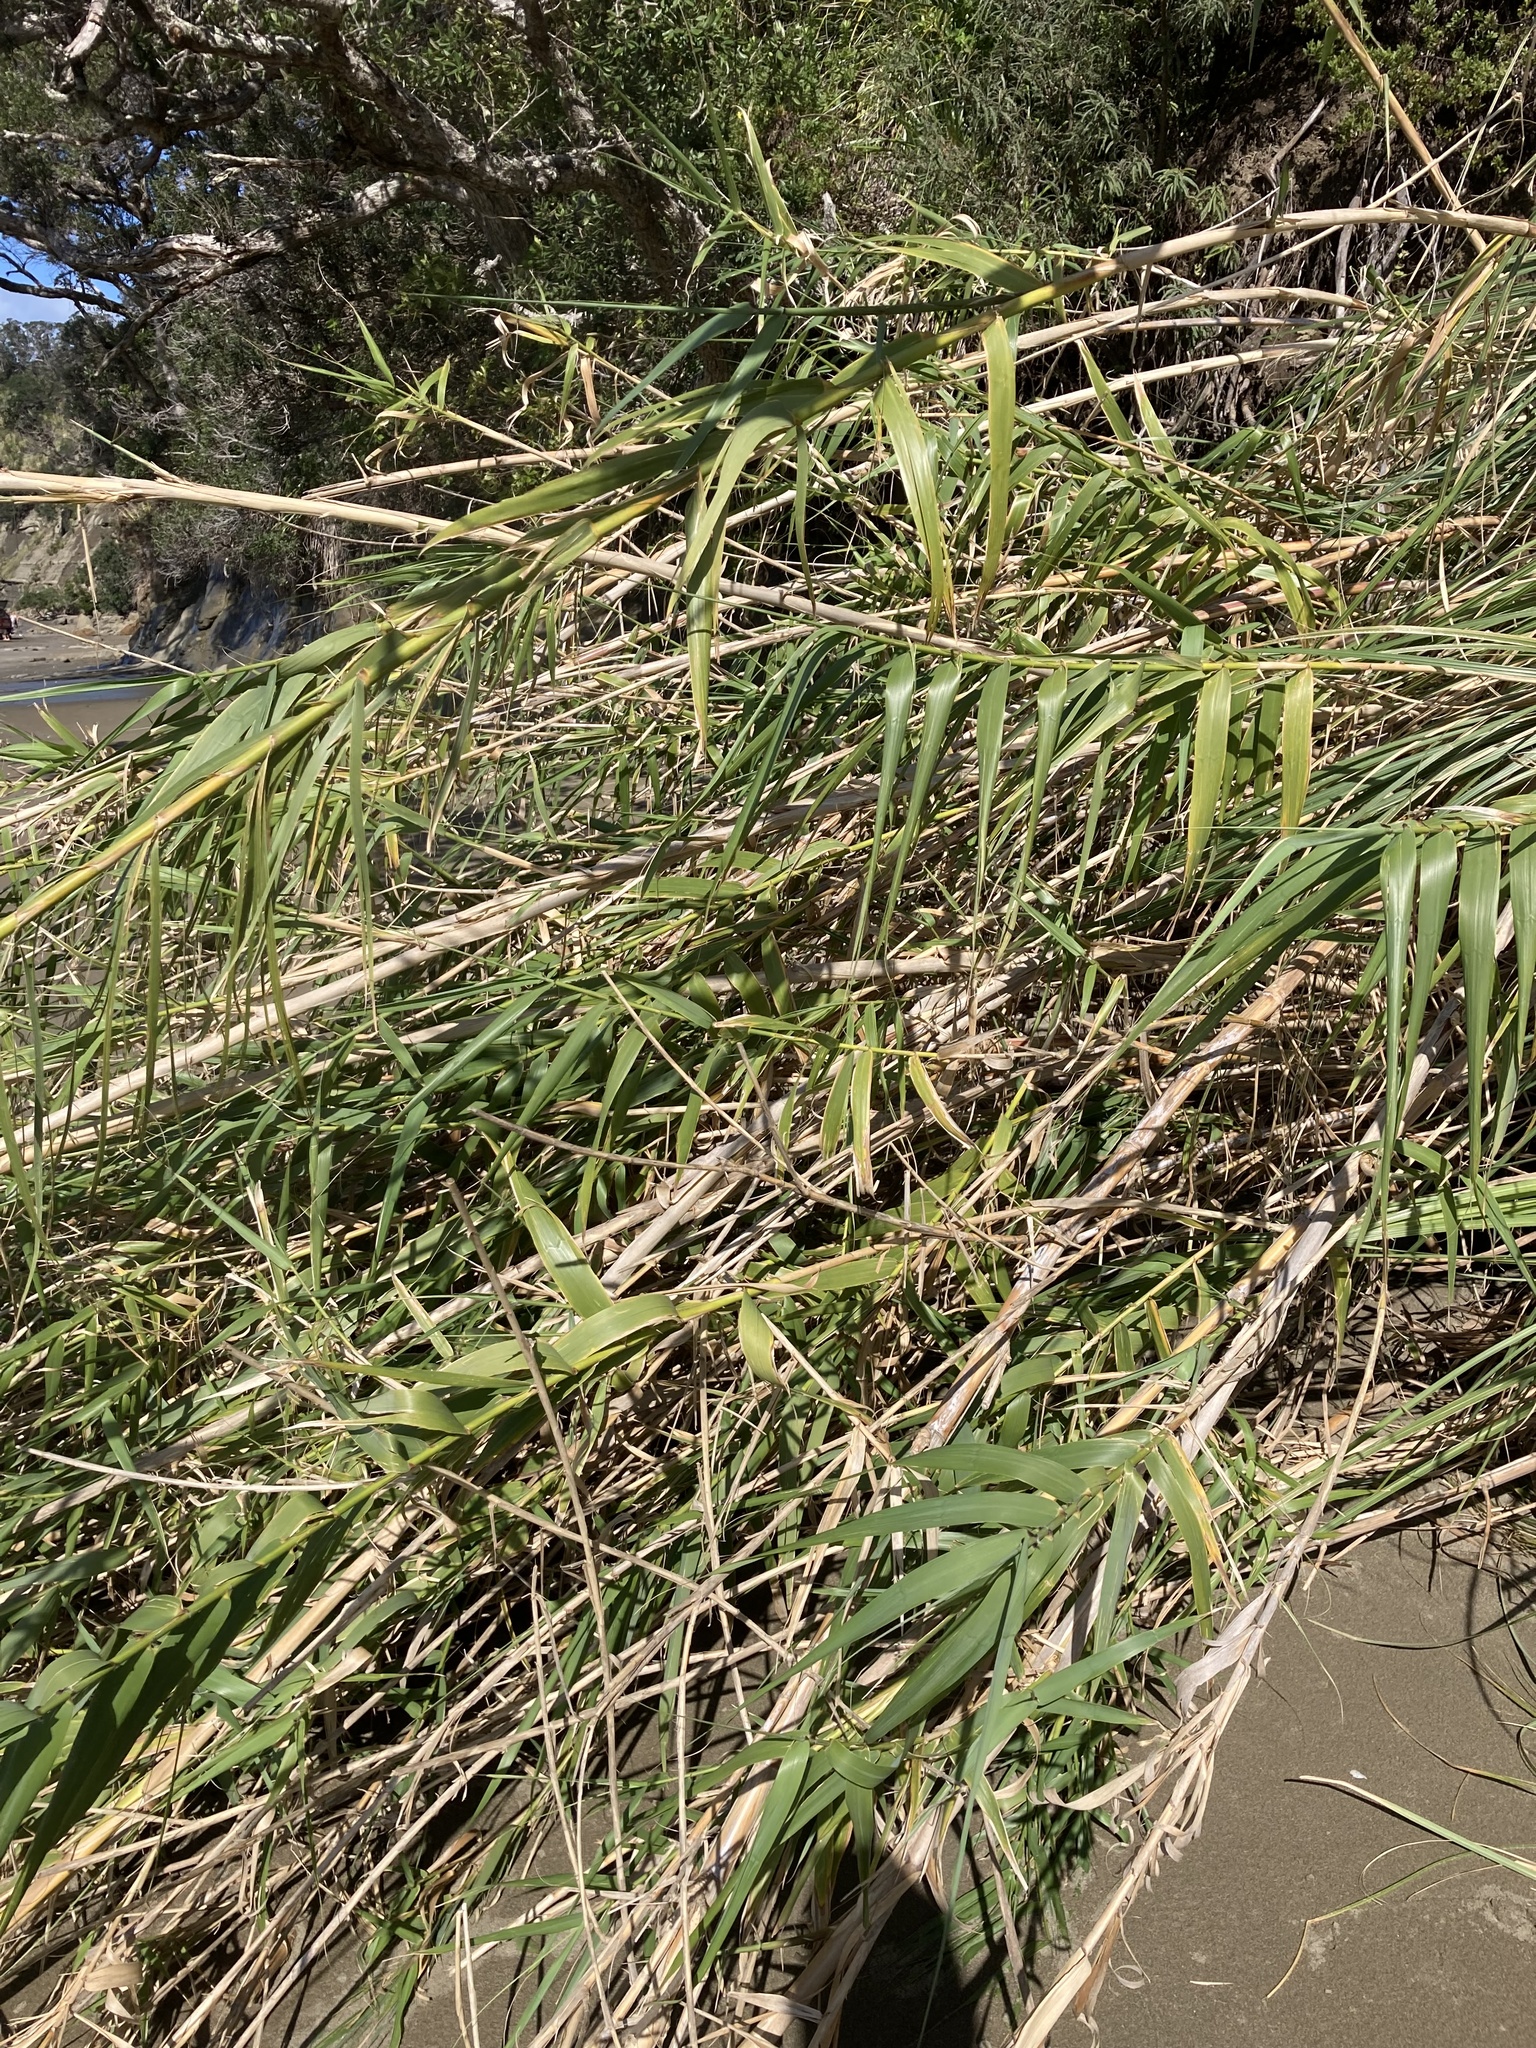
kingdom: Plantae
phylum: Tracheophyta
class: Liliopsida
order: Poales
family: Poaceae
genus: Arundo
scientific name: Arundo donax
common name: Giant reed
